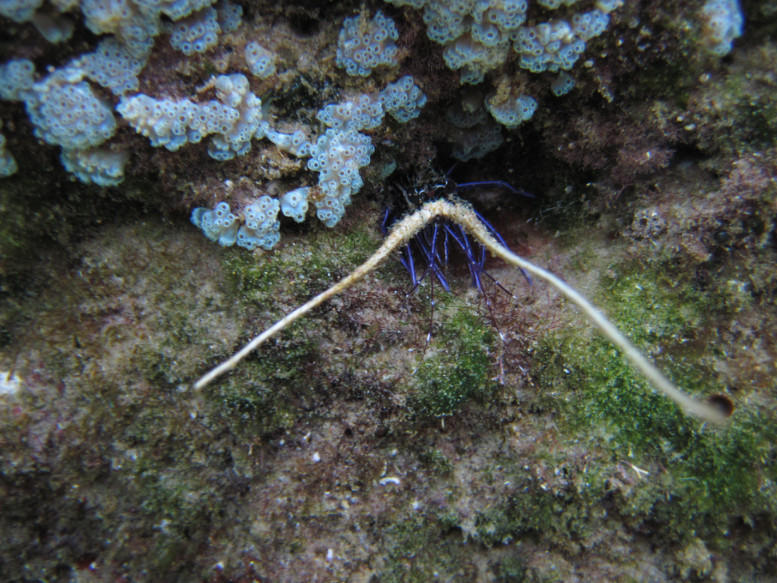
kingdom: Animalia
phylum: Arthropoda
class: Malacostraca
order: Decapoda
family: Palinuridae
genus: Panulirus
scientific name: Panulirus versicolor
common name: Painted spiny lobster
